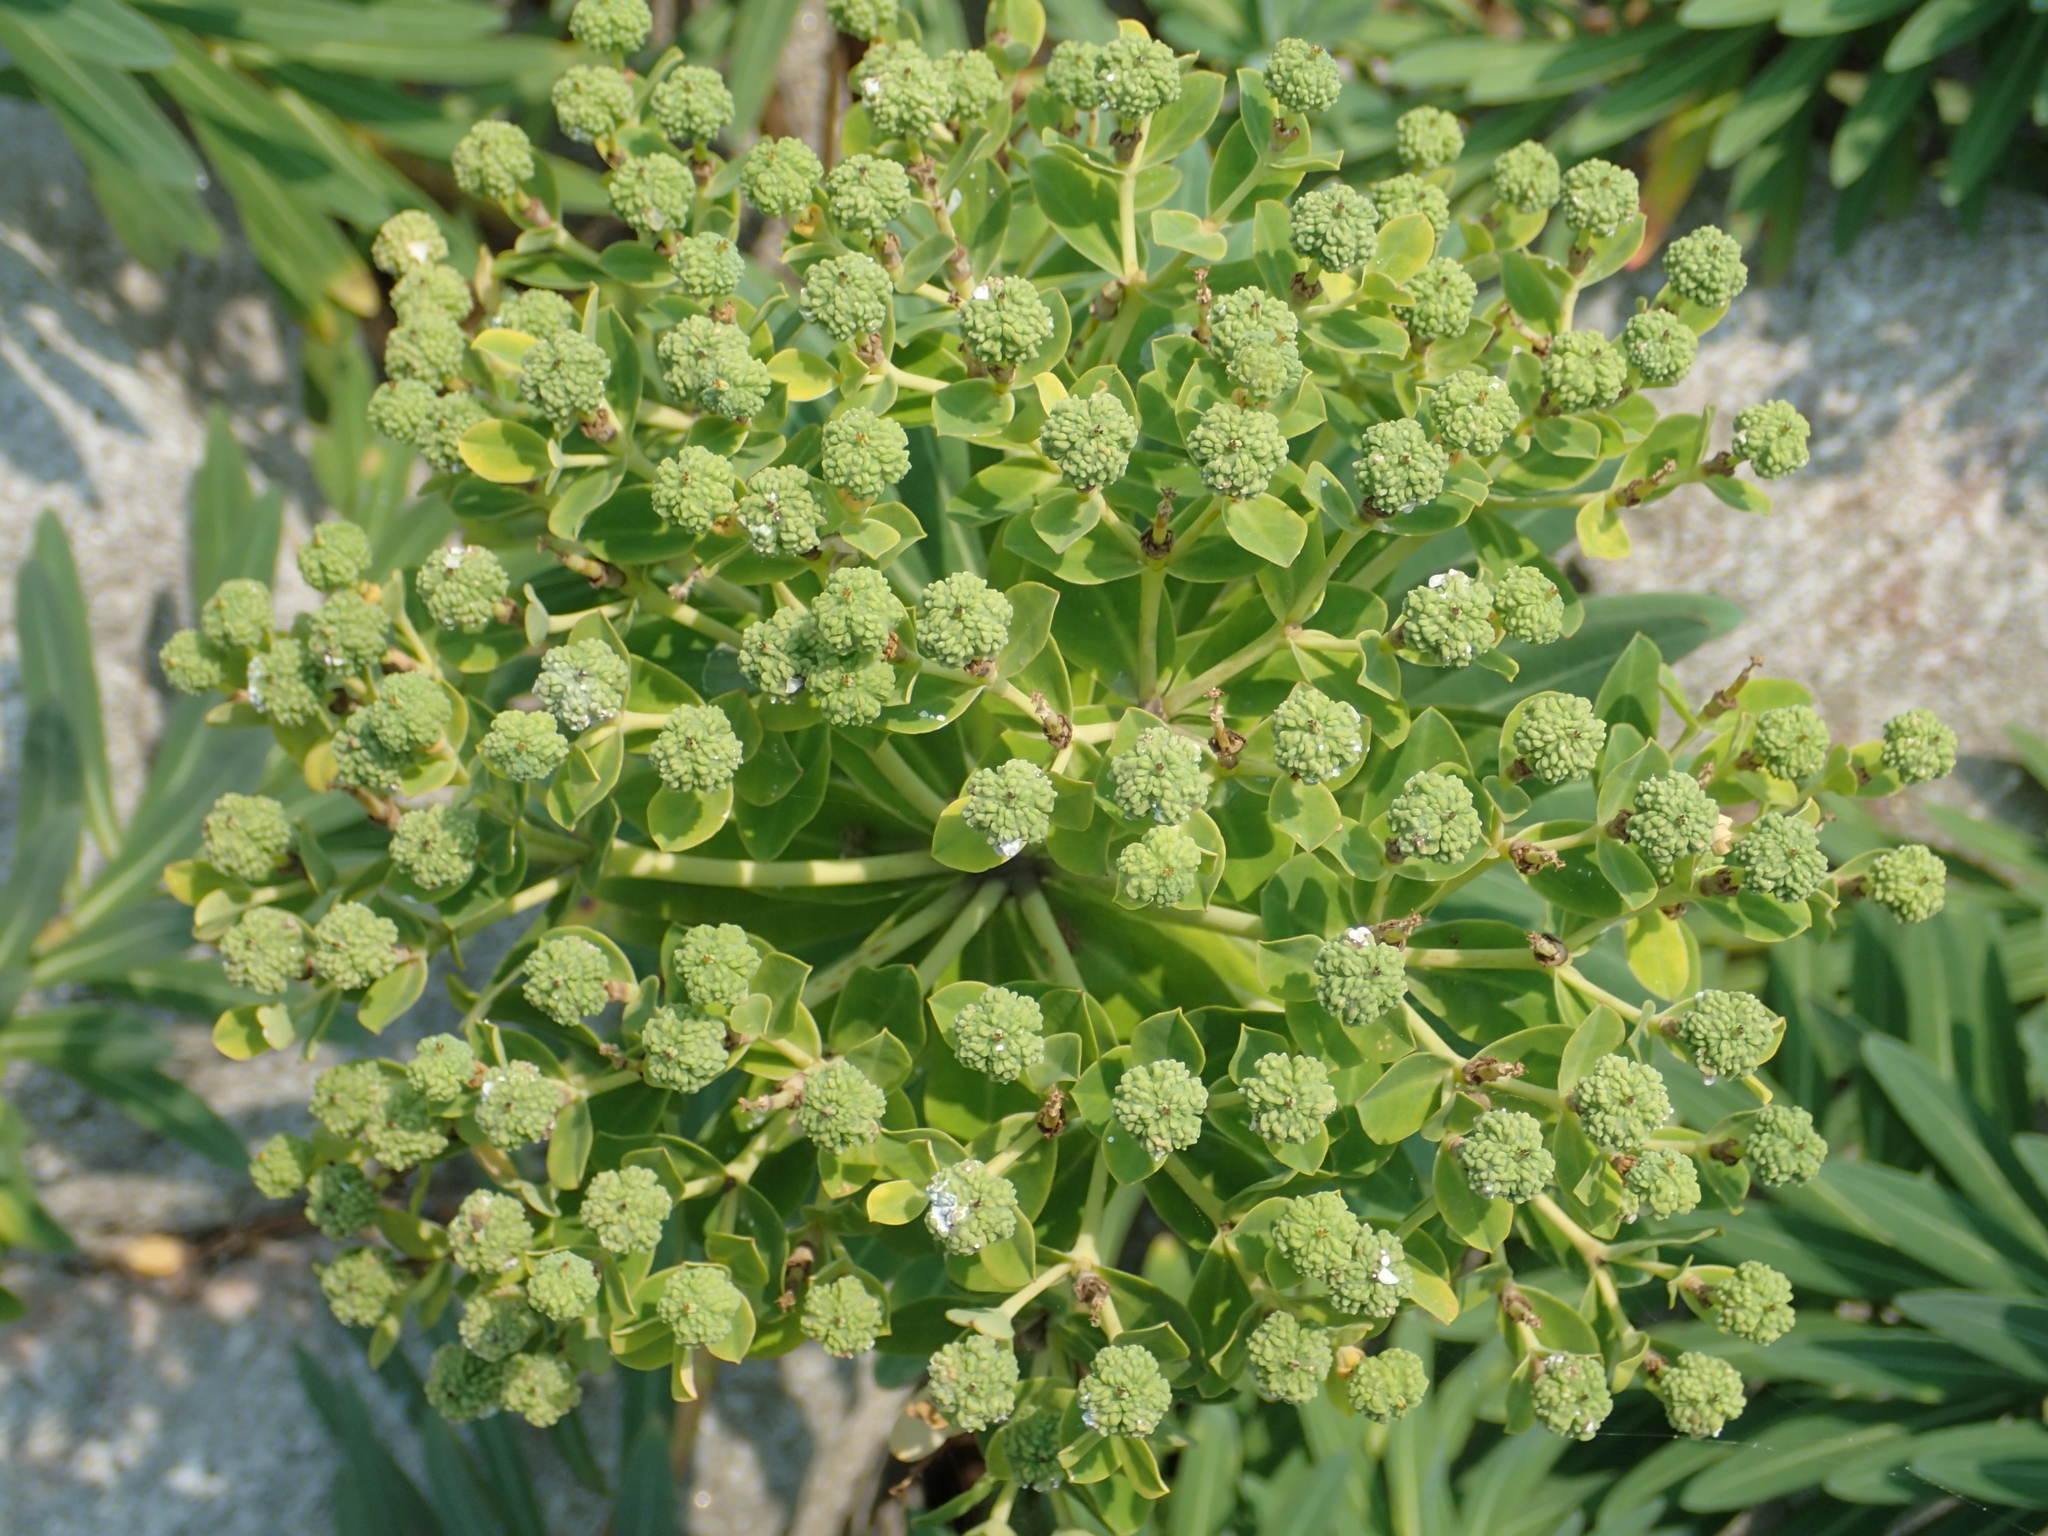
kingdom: Plantae
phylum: Tracheophyta
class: Magnoliopsida
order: Malpighiales
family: Euphorbiaceae
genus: Euphorbia
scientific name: Euphorbia jolkinii
